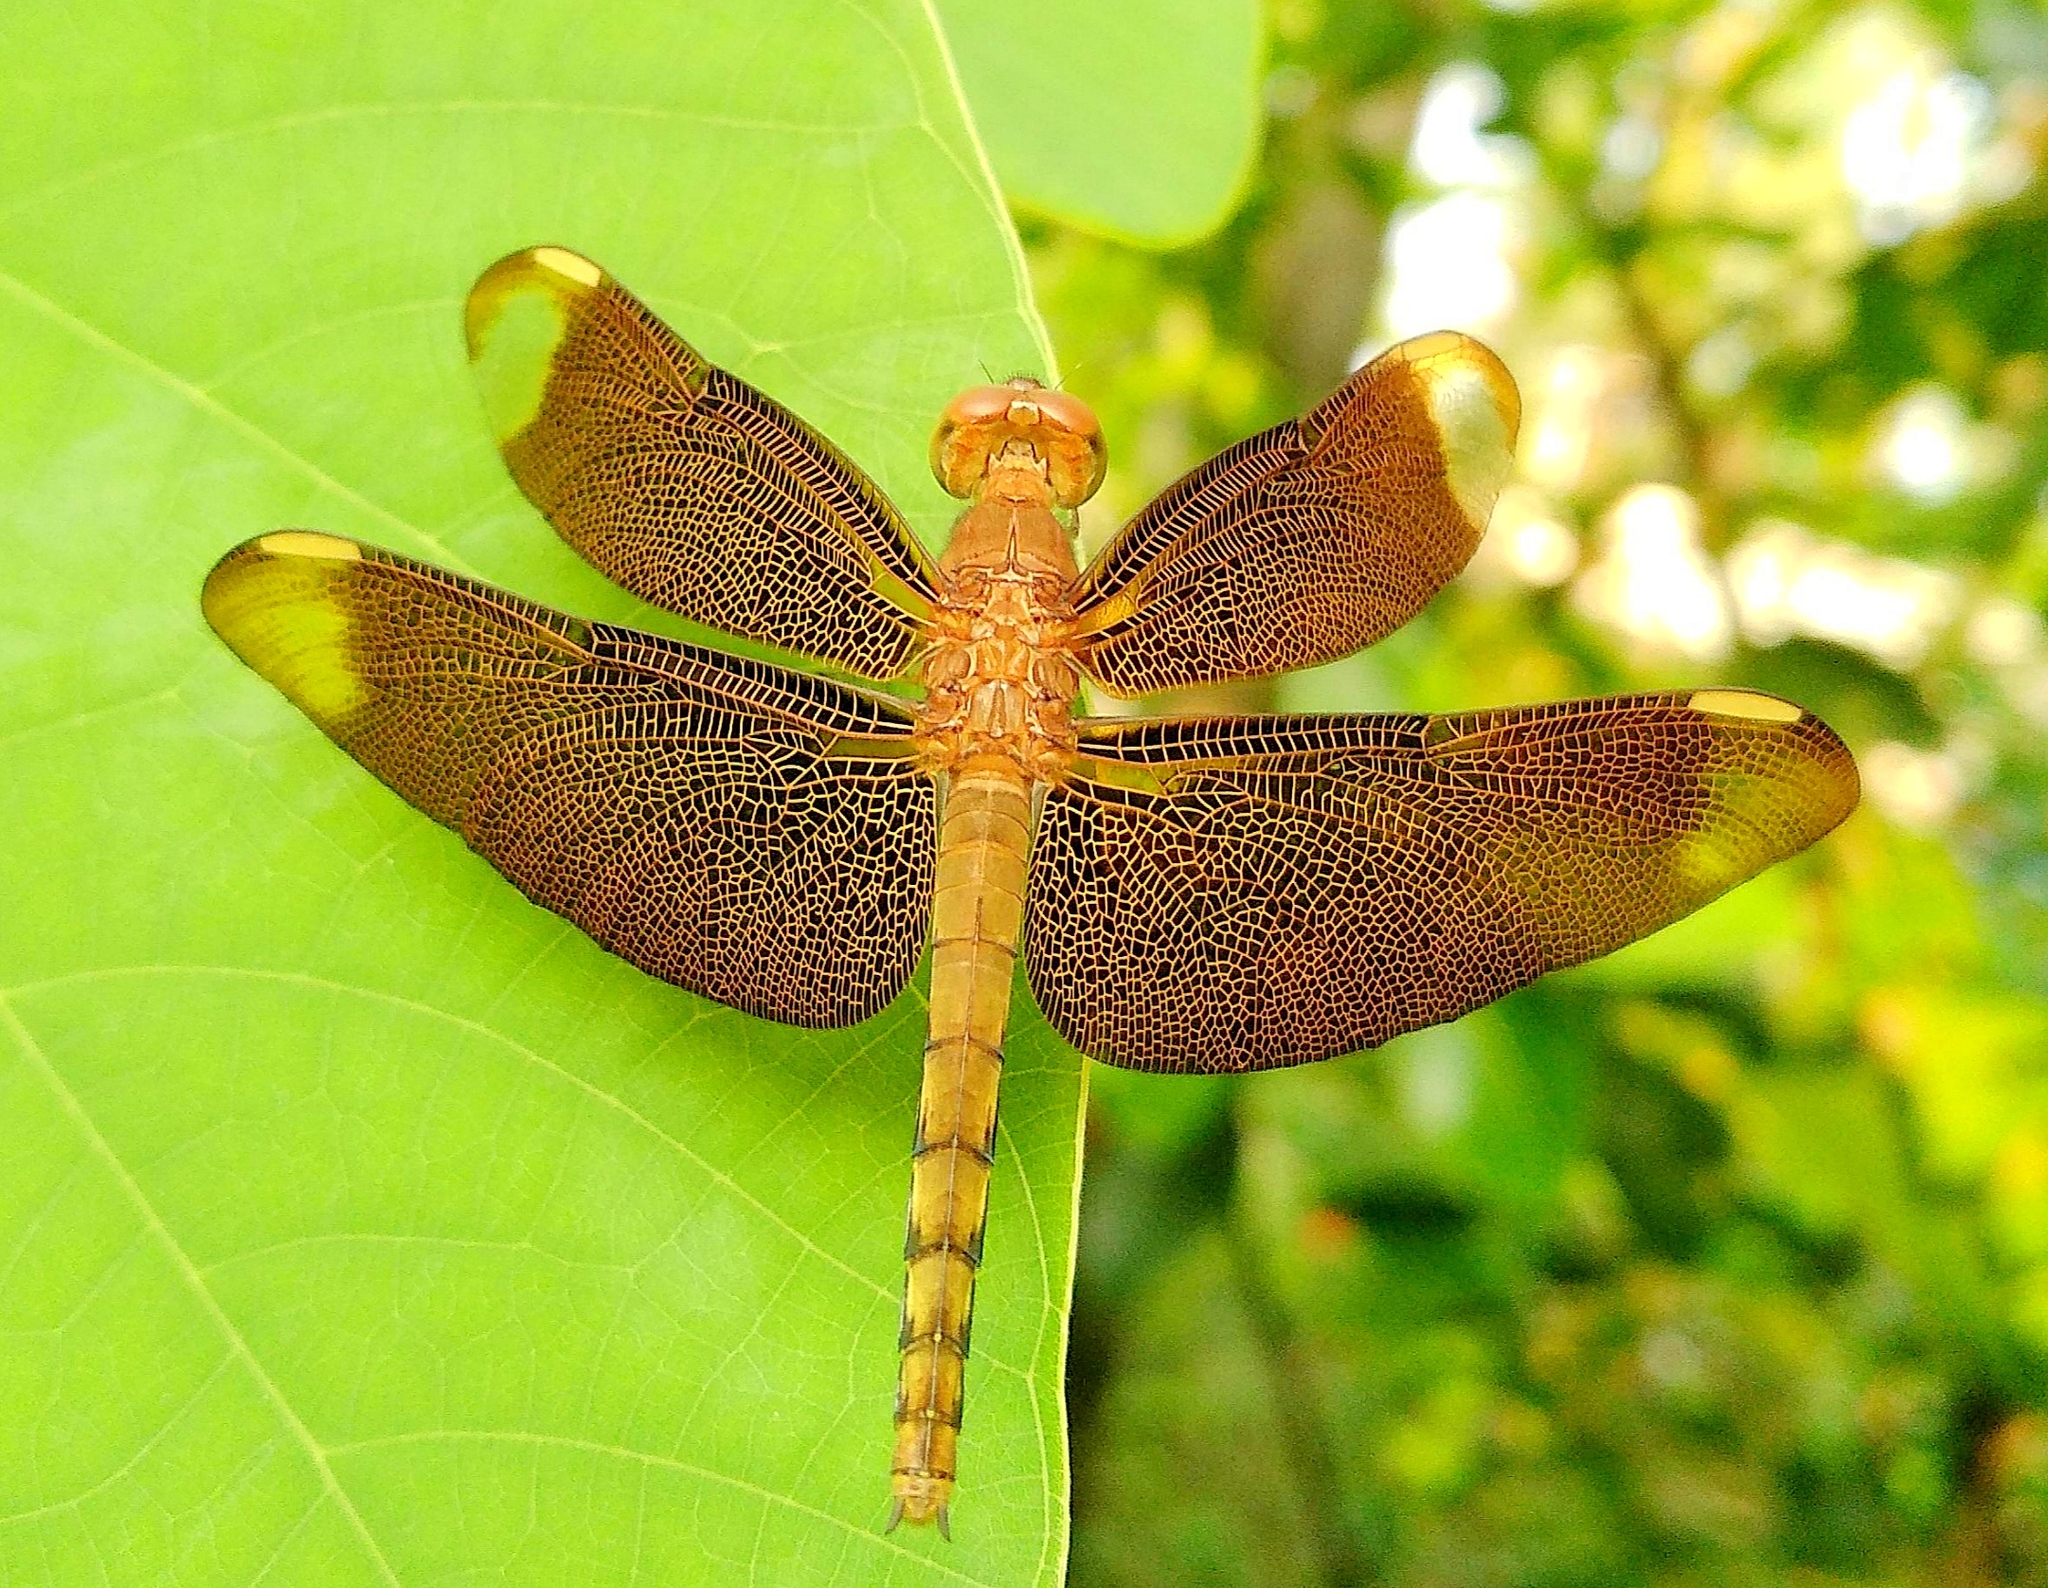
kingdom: Animalia
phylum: Arthropoda
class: Insecta
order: Odonata
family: Libellulidae
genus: Neurothemis
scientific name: Neurothemis fulvia
